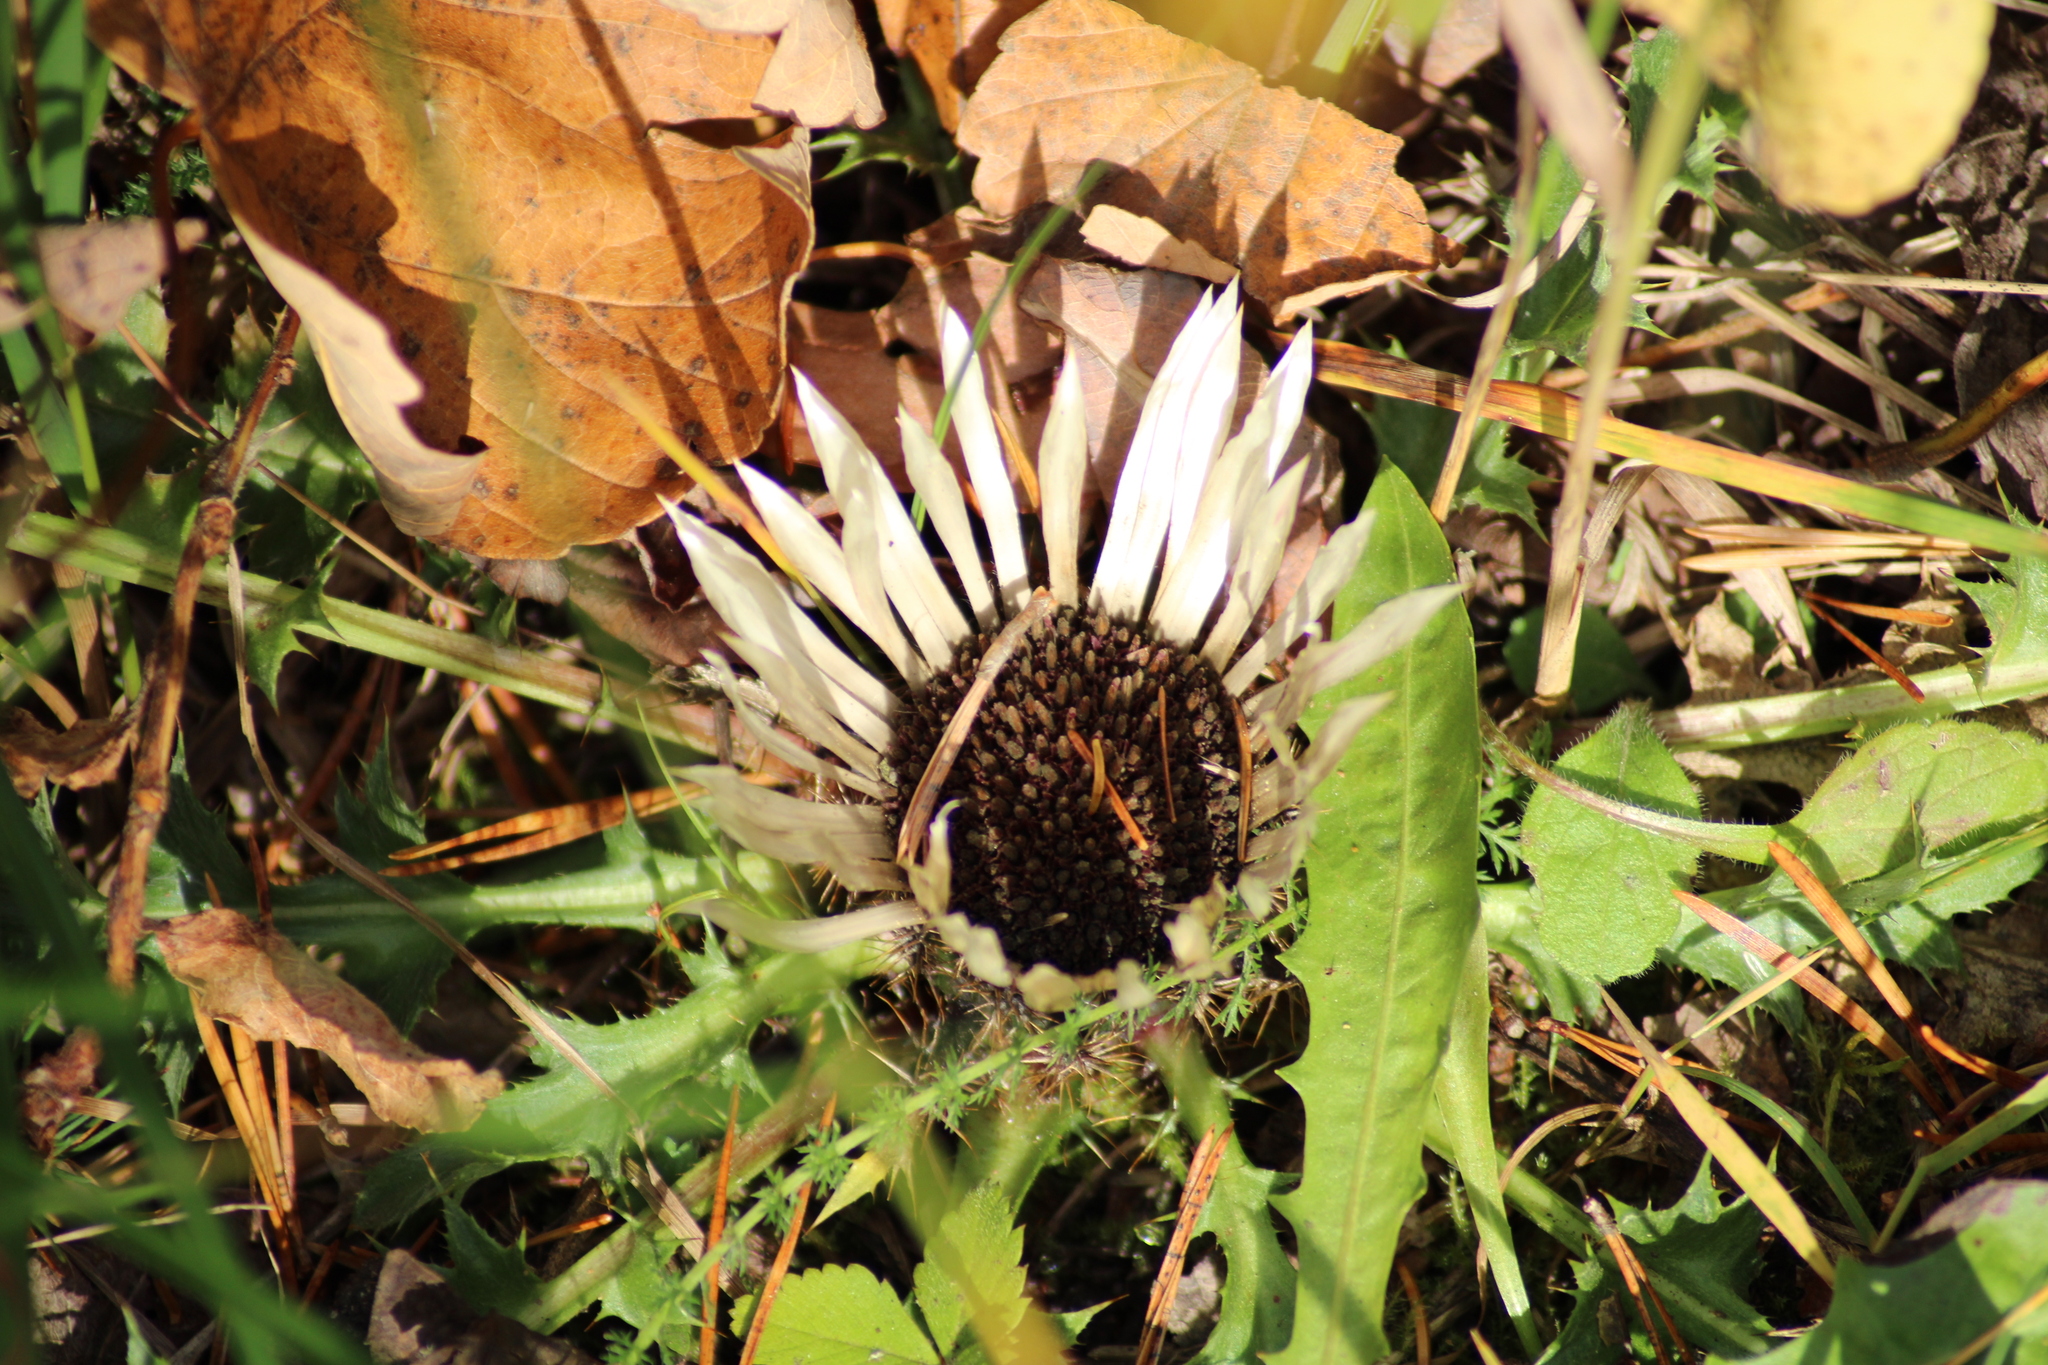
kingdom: Plantae
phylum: Tracheophyta
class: Magnoliopsida
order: Asterales
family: Asteraceae
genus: Carlina
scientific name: Carlina acaulis
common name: Stemless carline thistle
